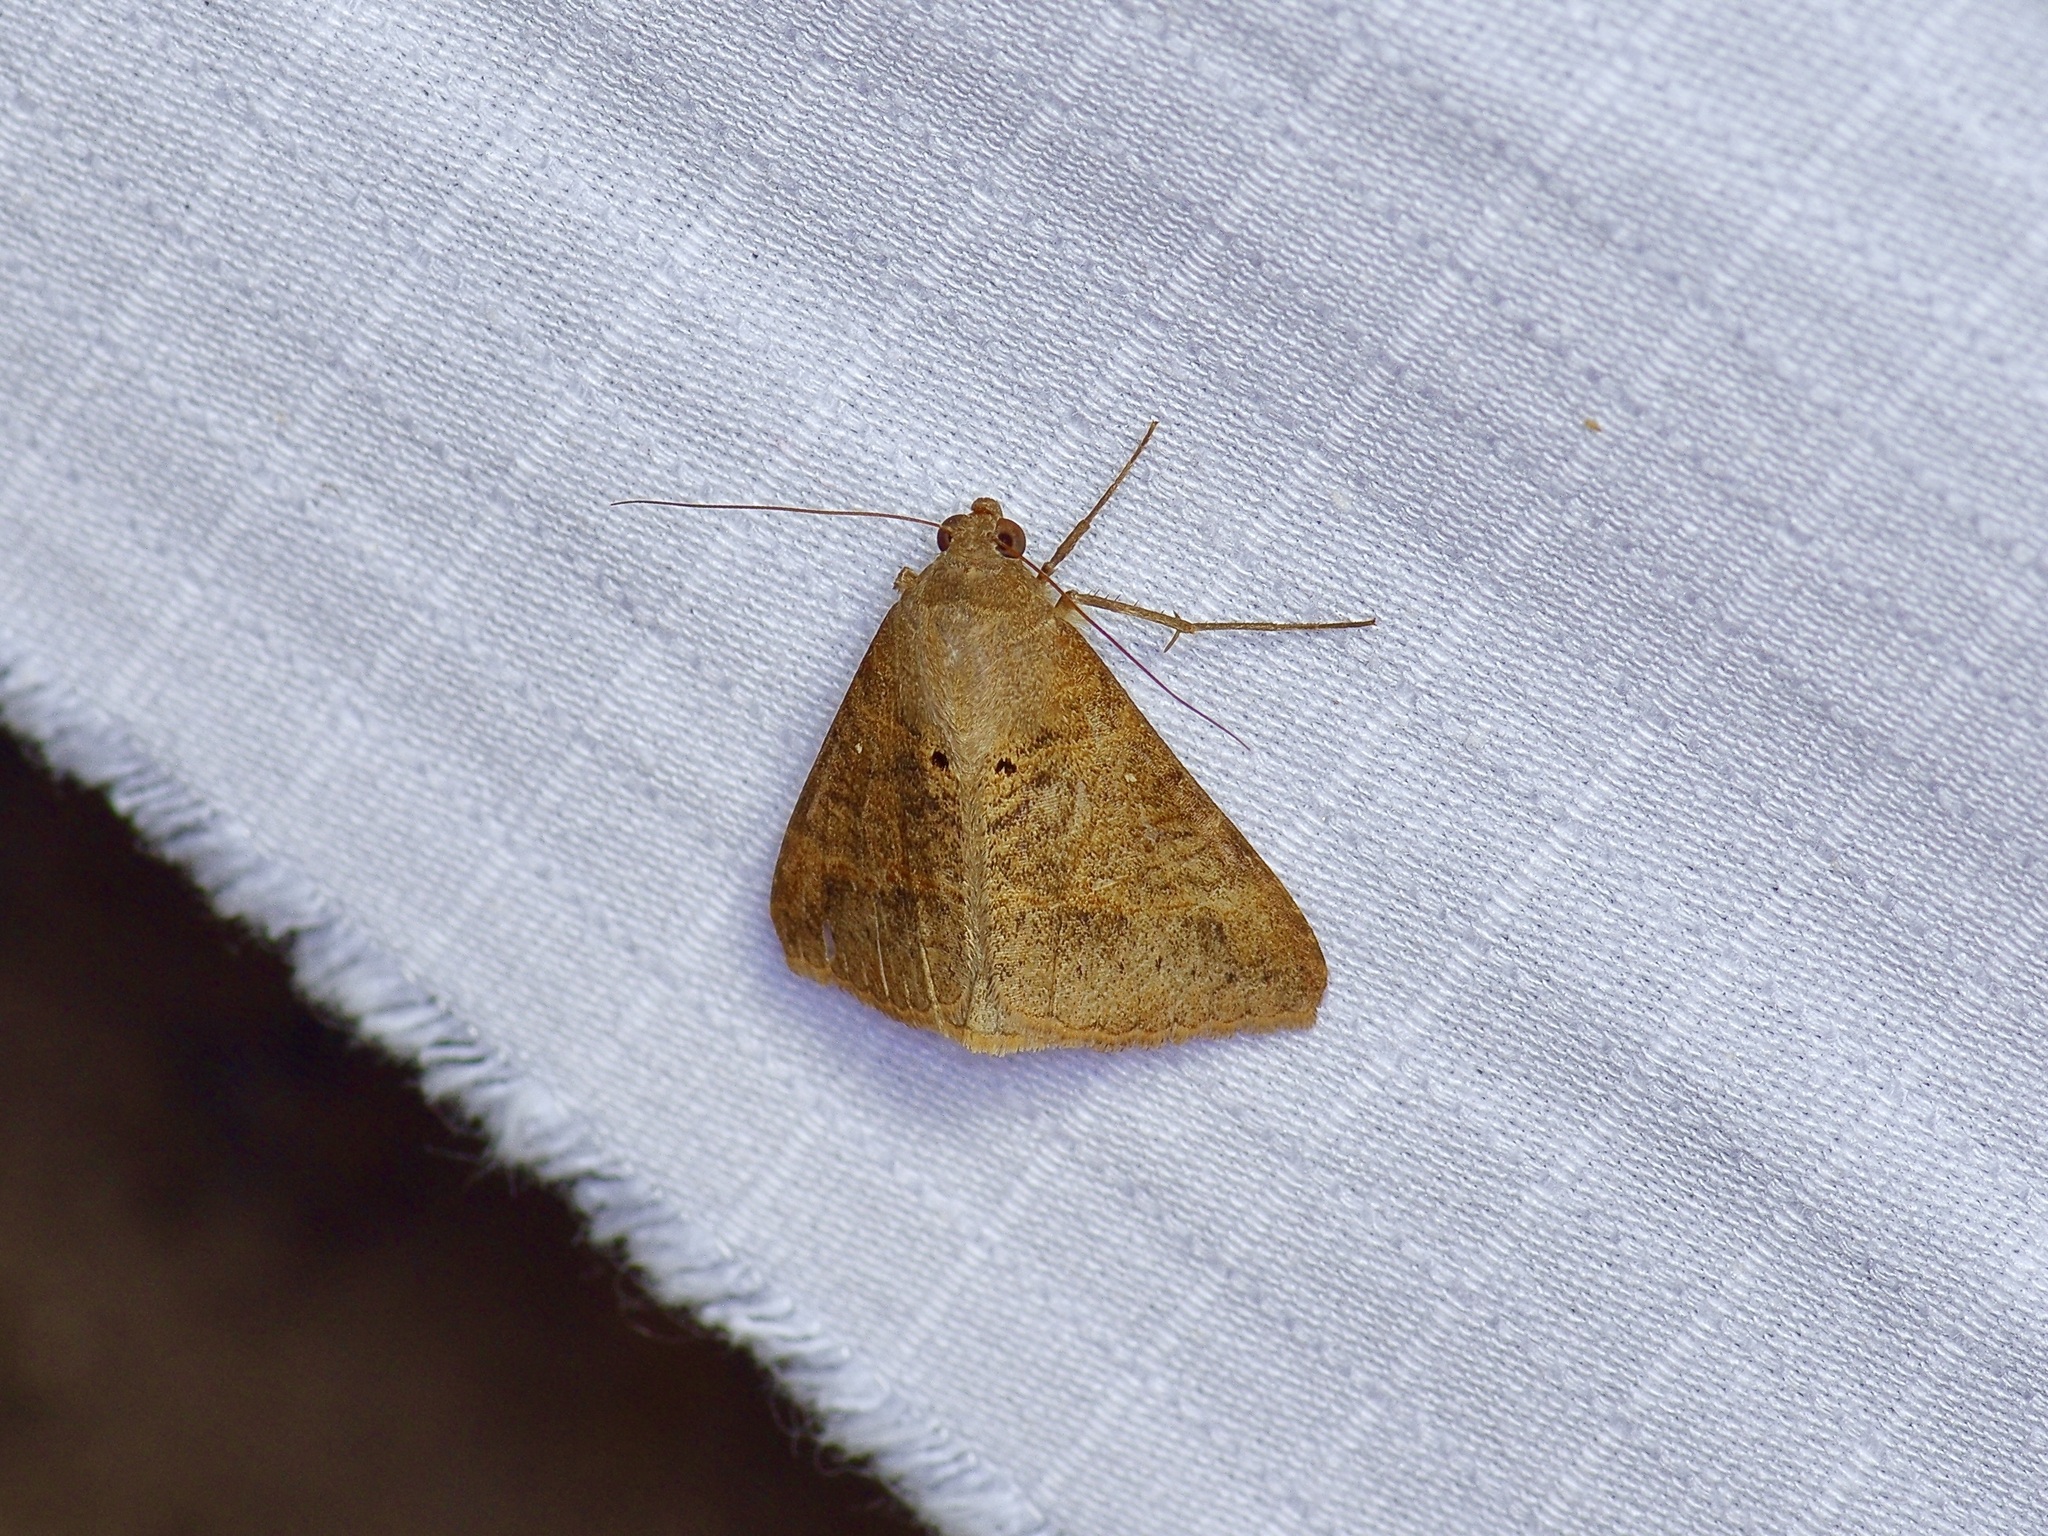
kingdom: Animalia
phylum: Arthropoda
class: Insecta
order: Lepidoptera
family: Erebidae
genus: Mocis
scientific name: Mocis latipes
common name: Striped grass looper
